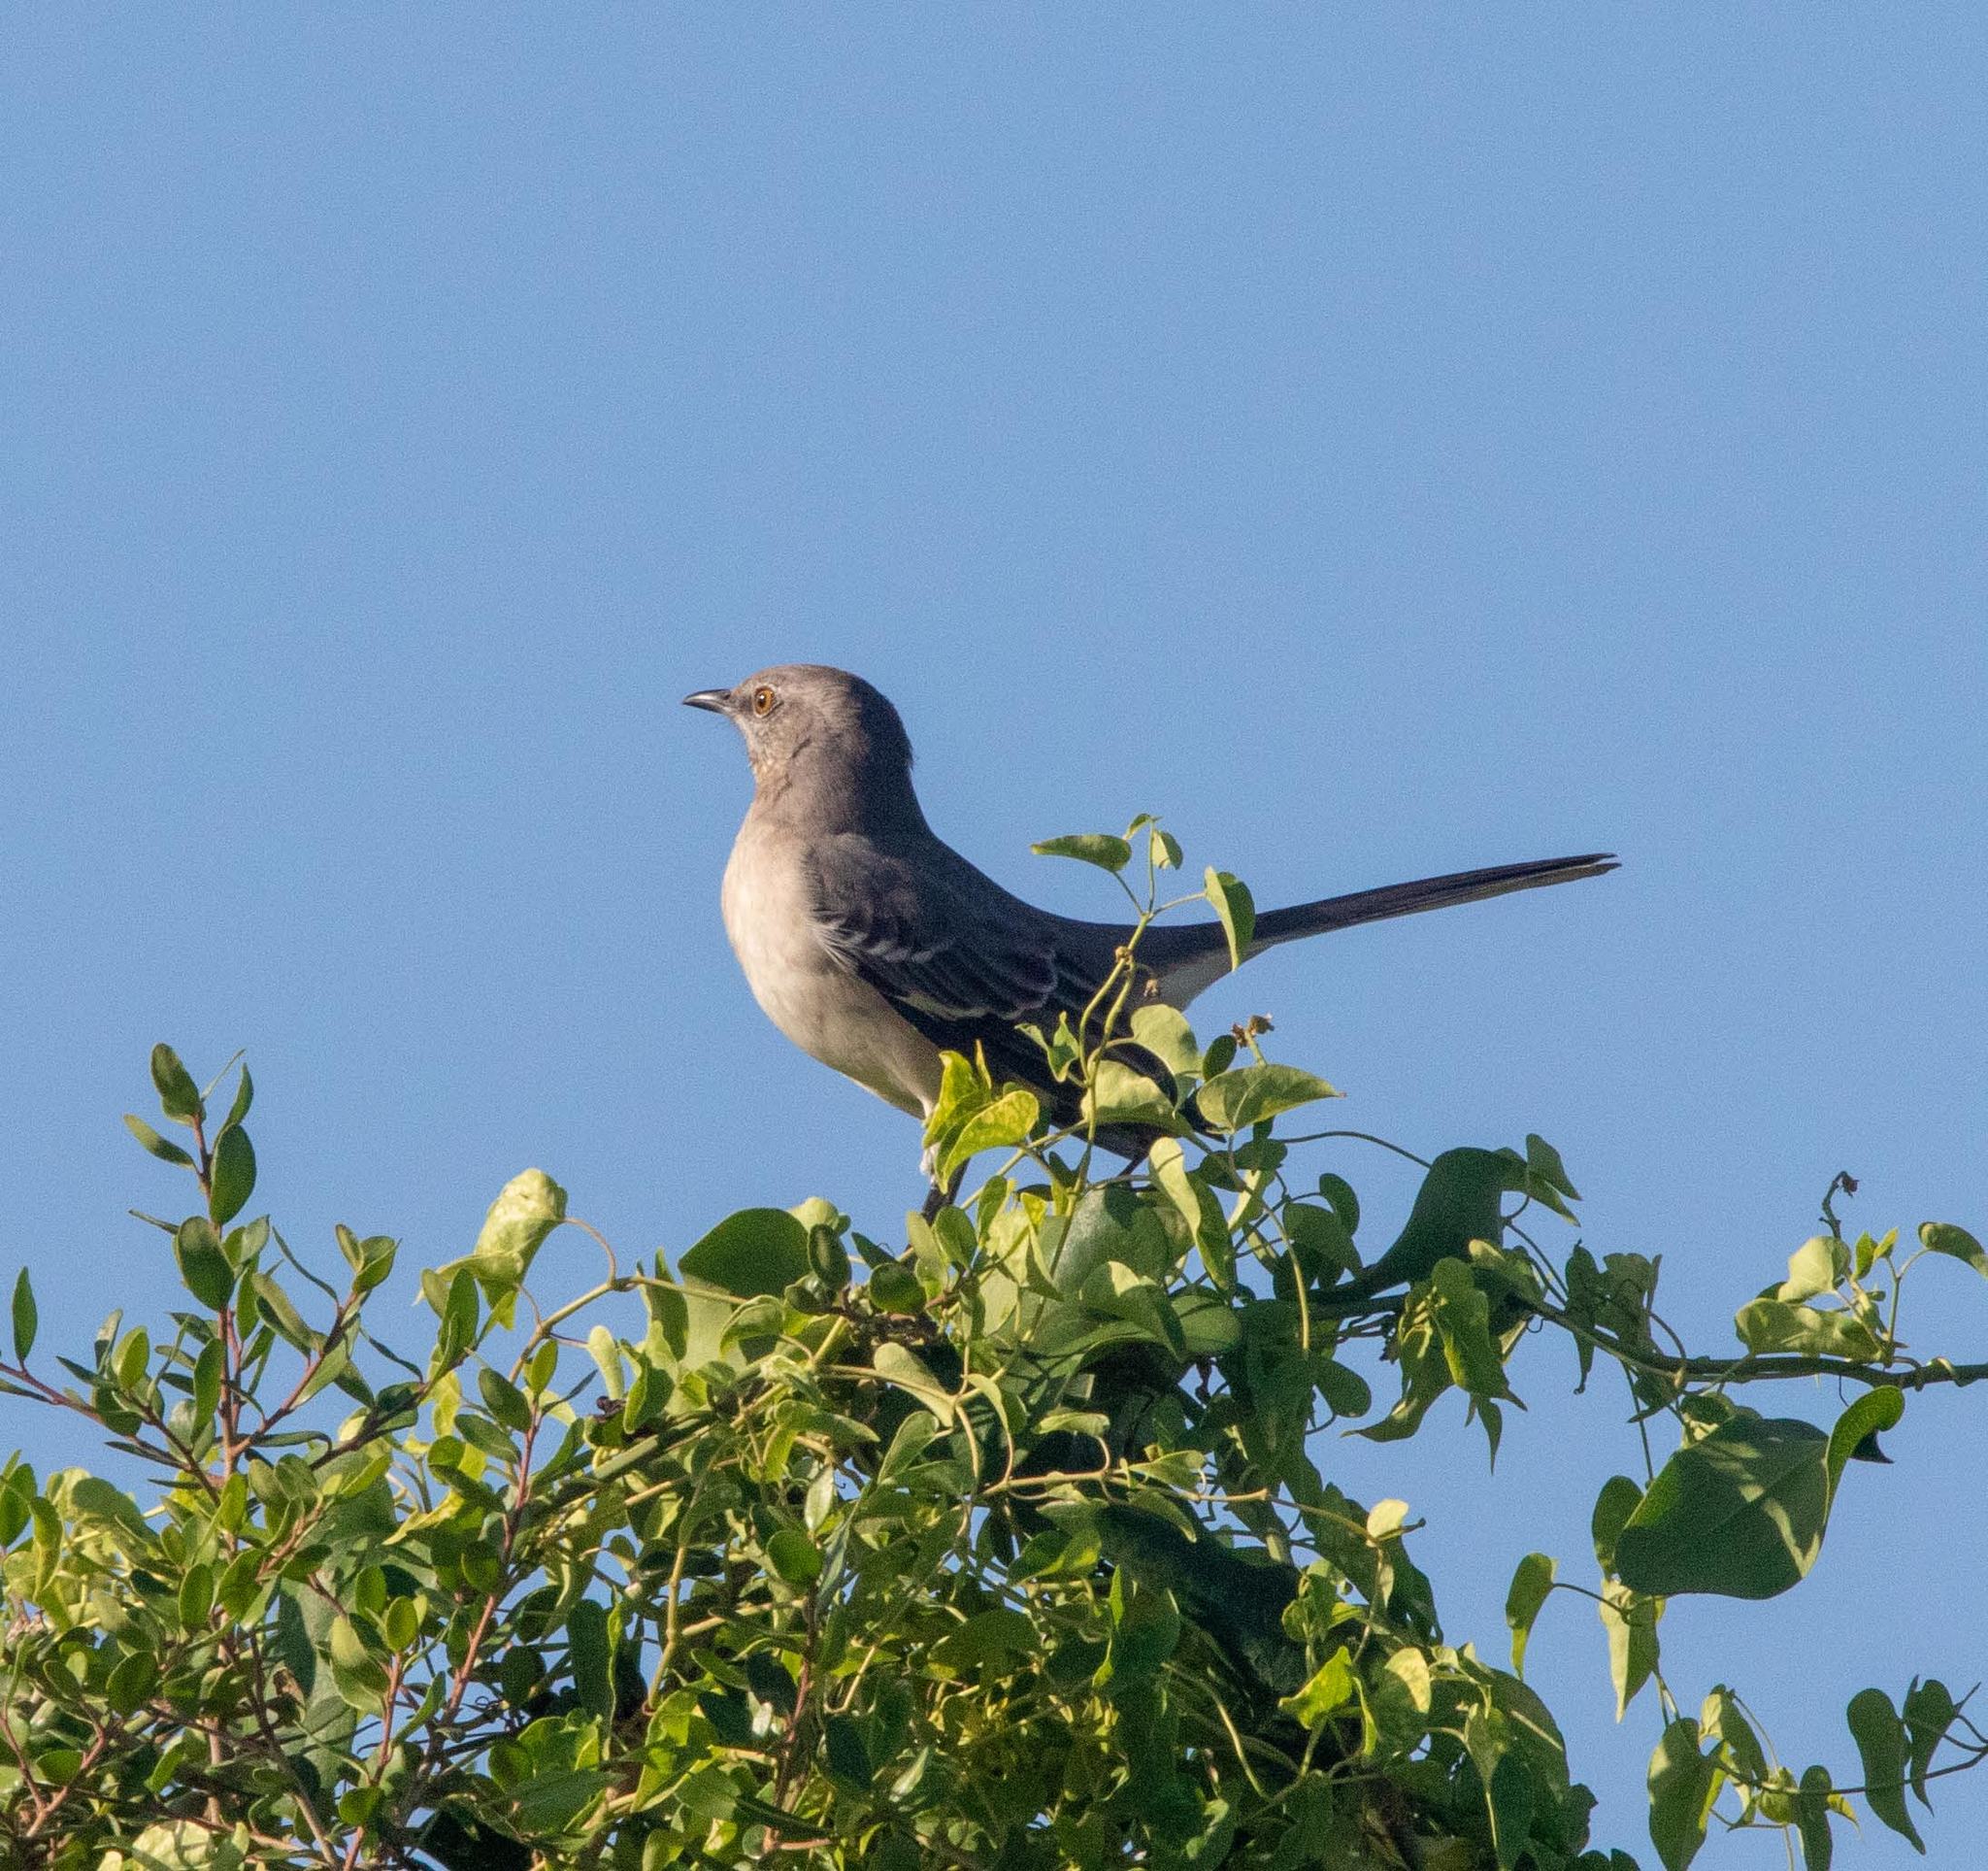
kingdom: Animalia
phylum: Chordata
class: Aves
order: Passeriformes
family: Mimidae
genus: Mimus
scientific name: Mimus polyglottos
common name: Northern mockingbird
